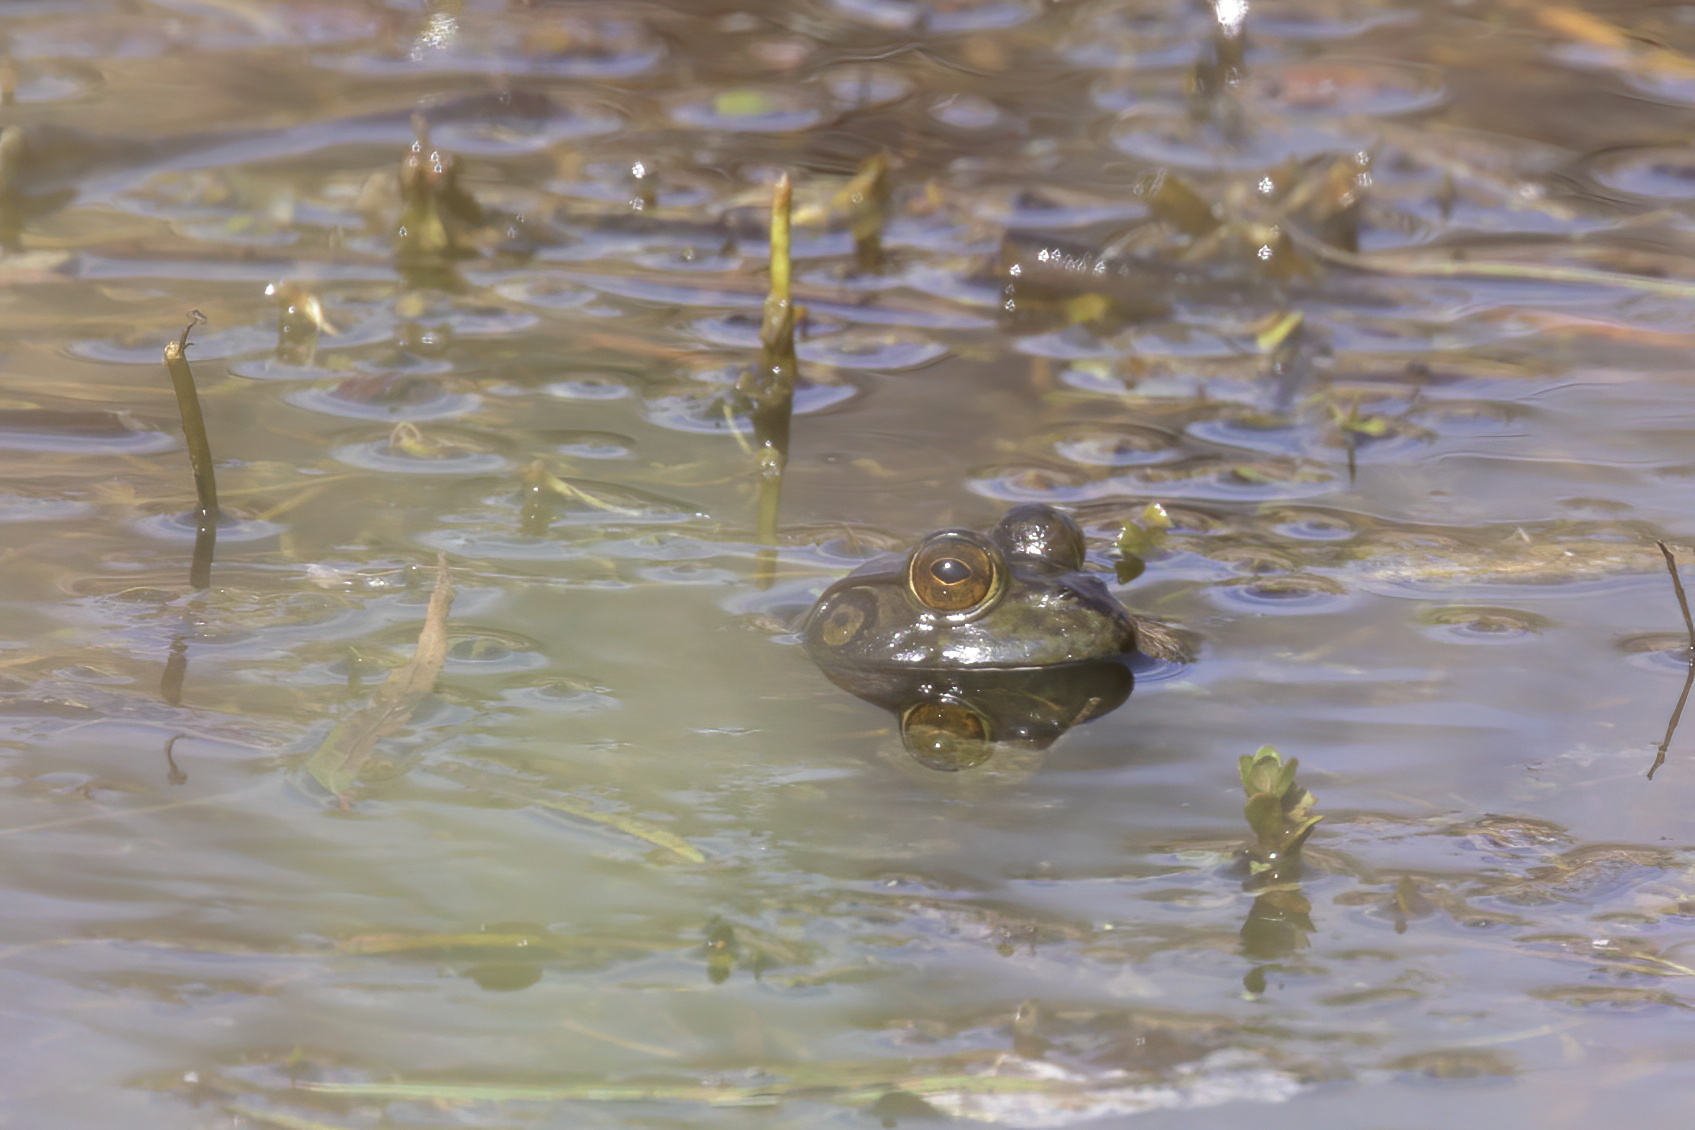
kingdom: Animalia
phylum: Chordata
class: Amphibia
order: Anura
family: Ranidae
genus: Lithobates
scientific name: Lithobates catesbeianus
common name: American bullfrog
